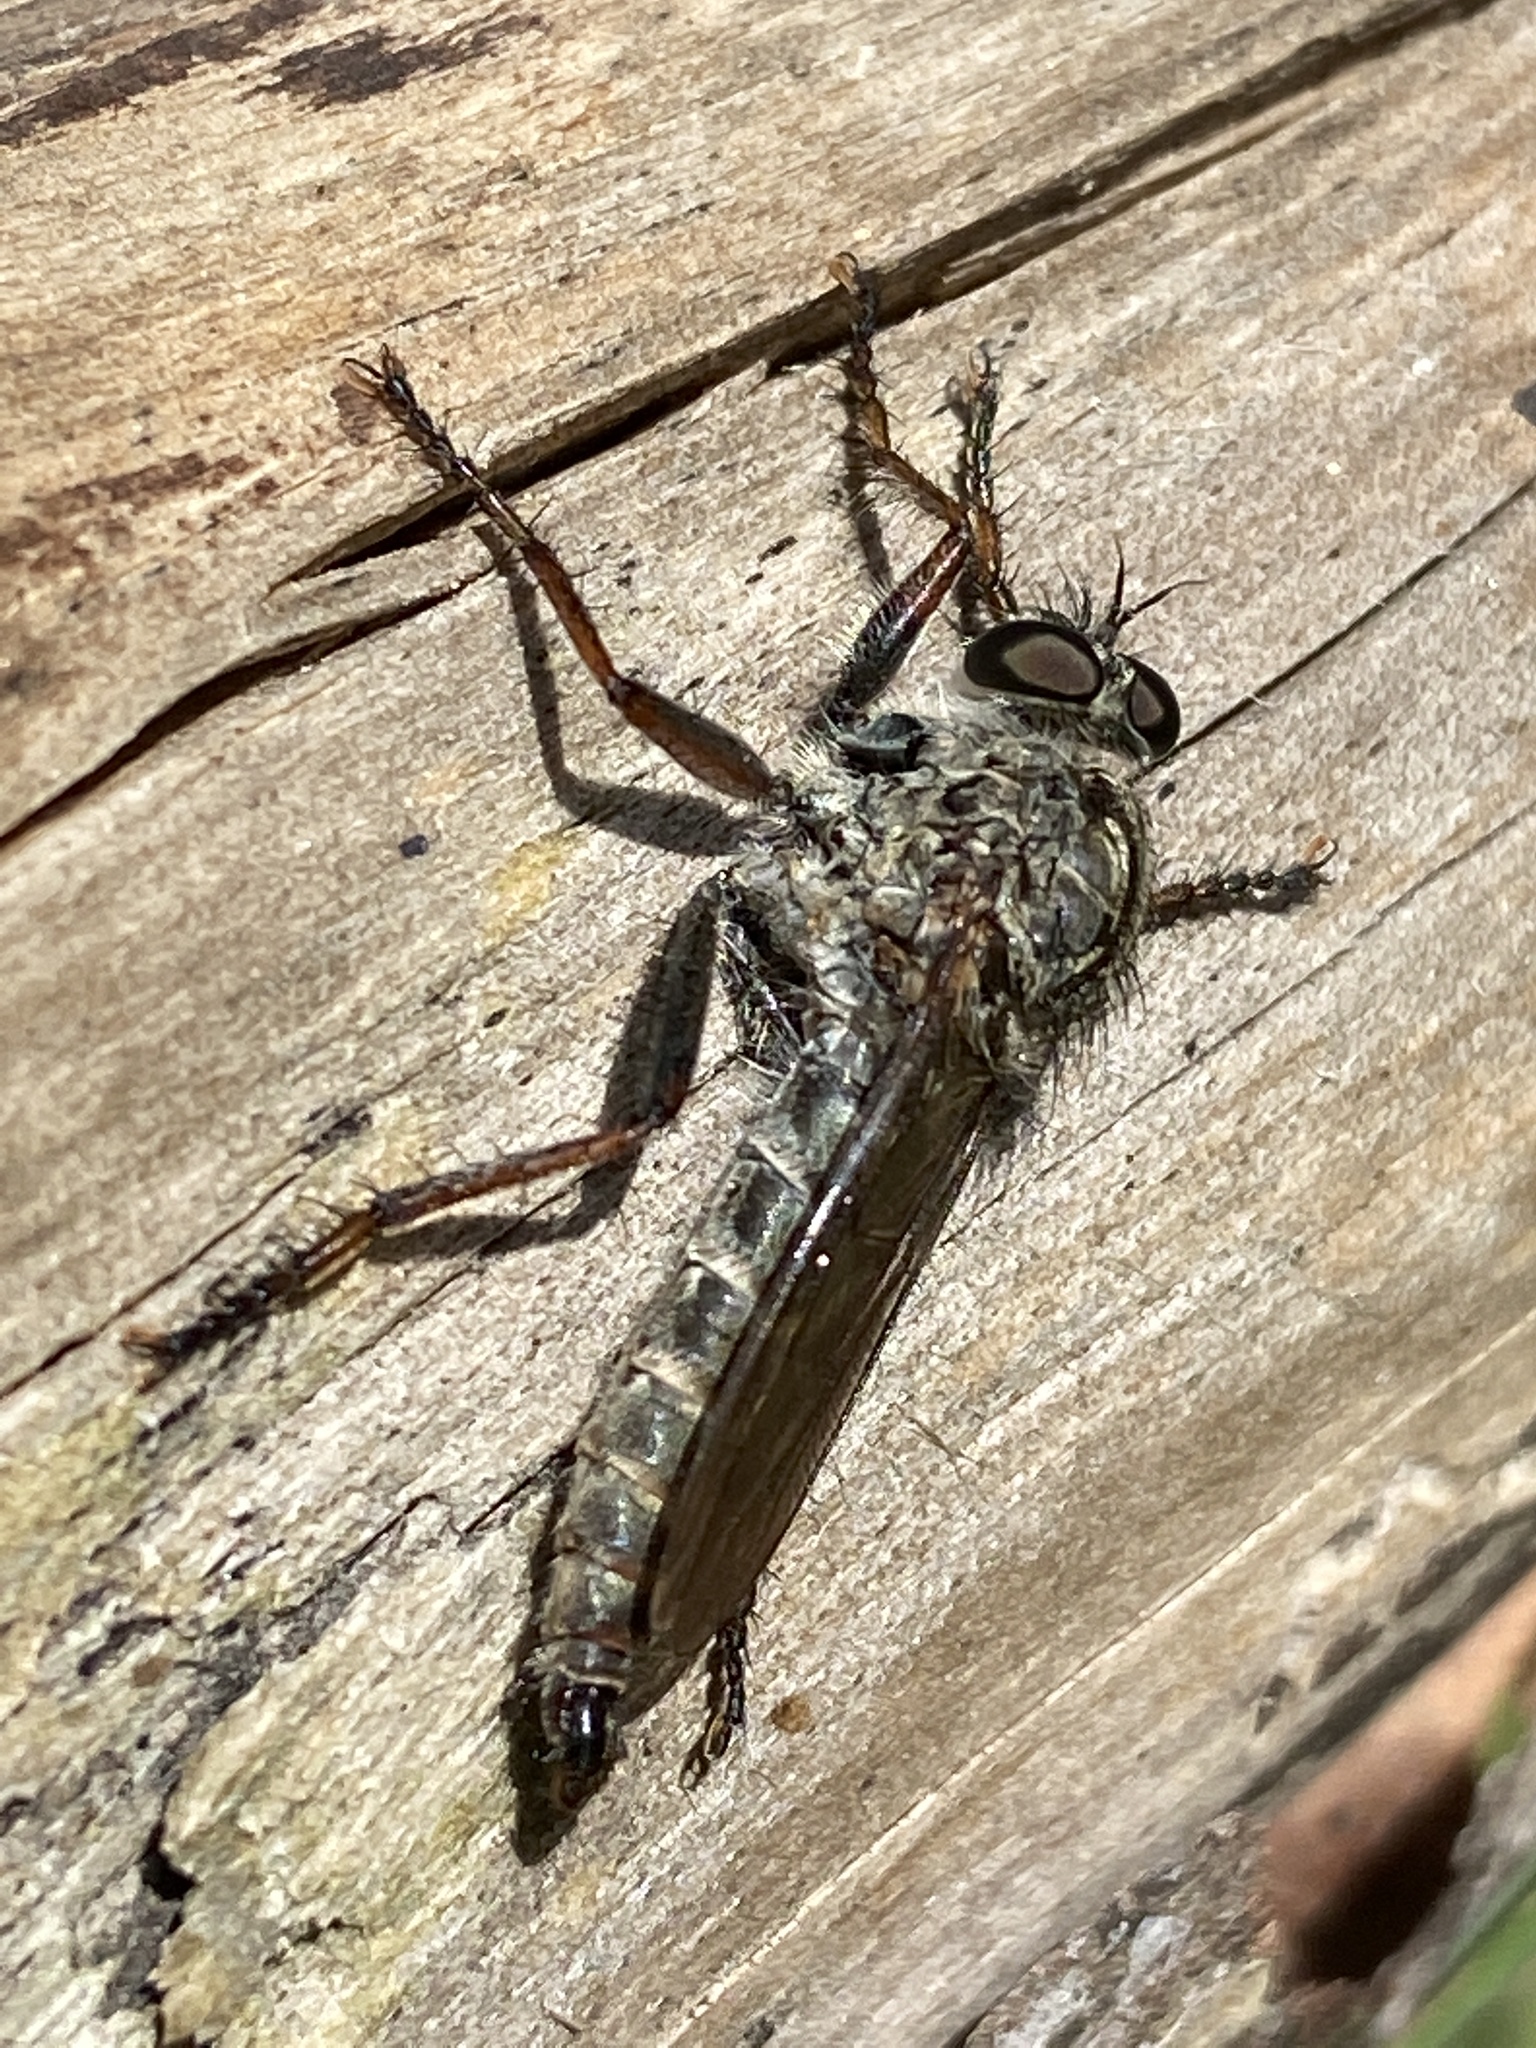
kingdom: Animalia
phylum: Arthropoda
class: Insecta
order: Diptera
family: Asilidae
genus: Machimus
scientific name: Machimus atricapillus
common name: Kite-tailed robberfly
